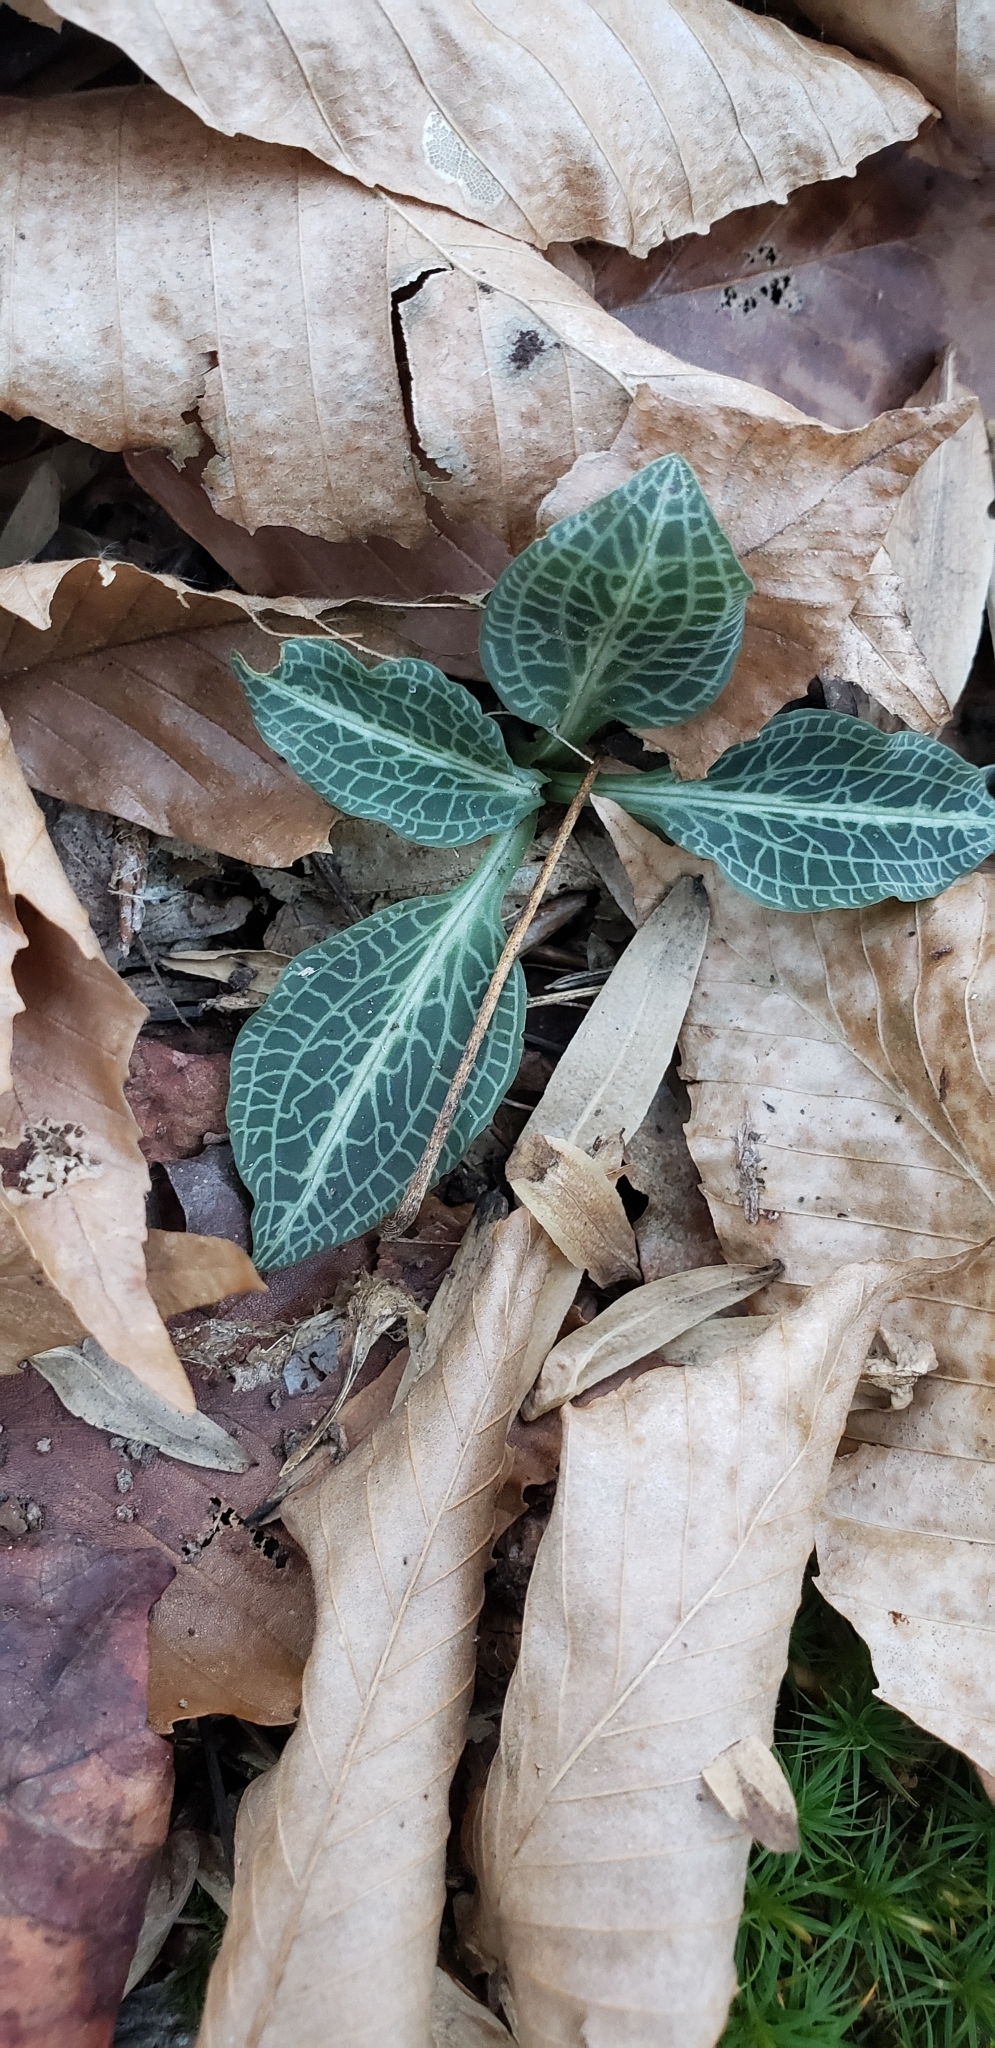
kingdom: Plantae
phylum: Tracheophyta
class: Liliopsida
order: Asparagales
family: Orchidaceae
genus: Goodyera
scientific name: Goodyera pubescens
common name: Downy rattlesnake-plantain
